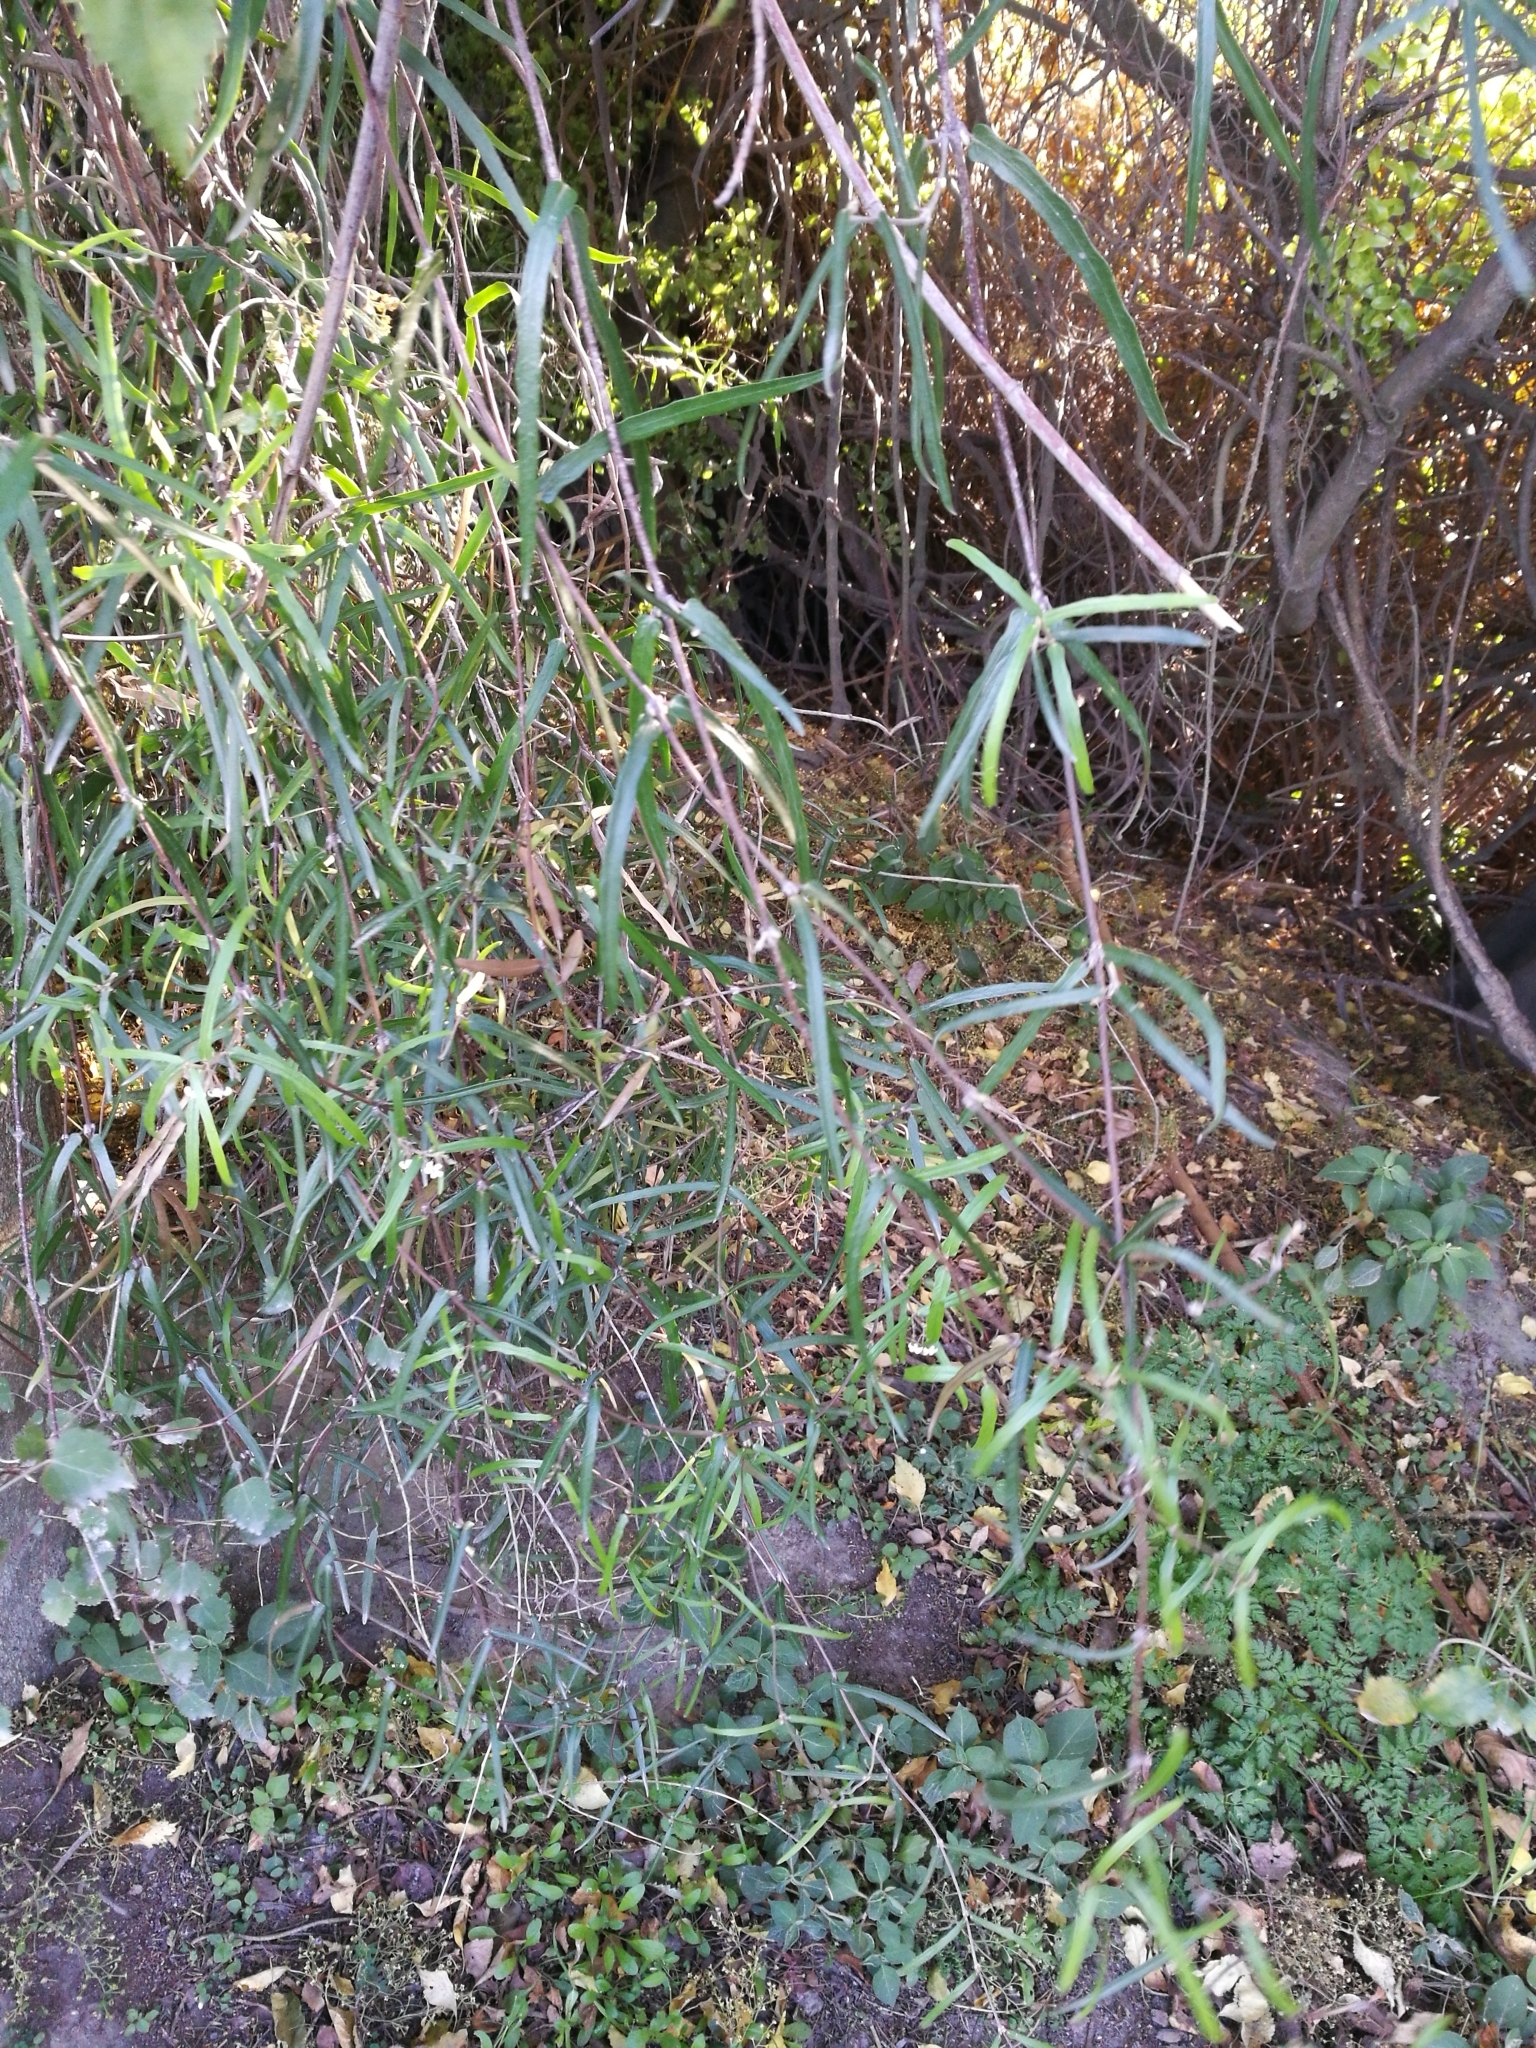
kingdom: Plantae
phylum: Tracheophyta
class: Magnoliopsida
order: Gentianales
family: Apocynaceae
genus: Parsonsia
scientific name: Parsonsia capsularis
